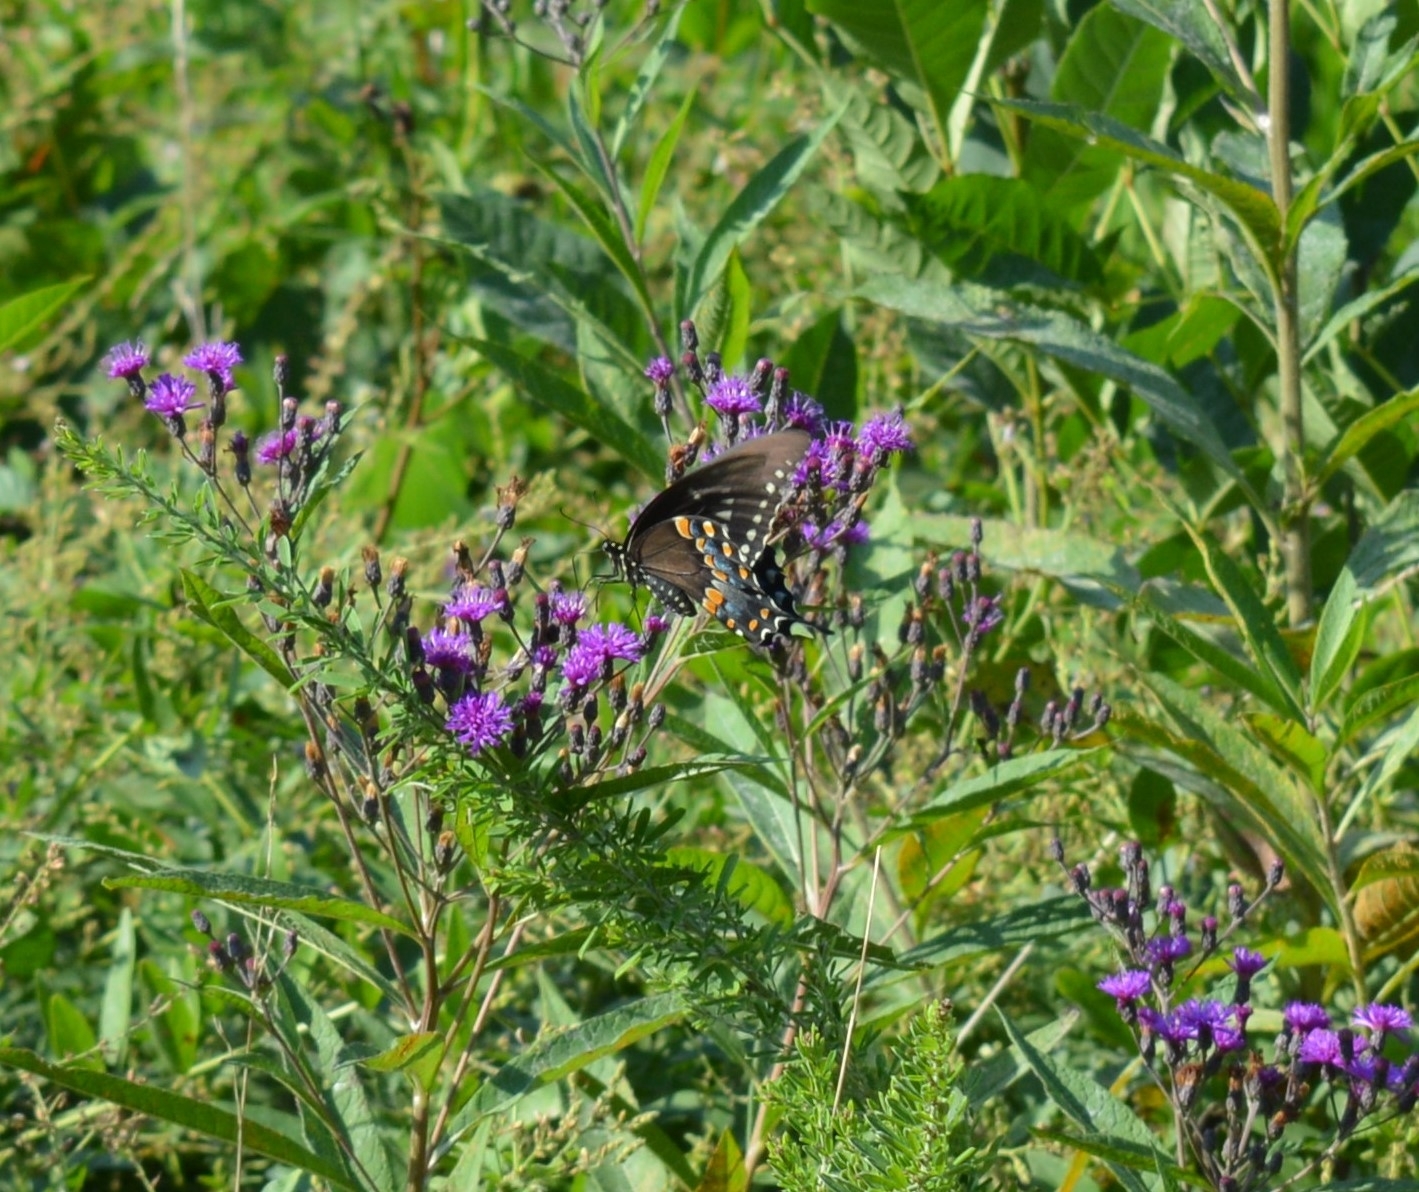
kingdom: Animalia
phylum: Arthropoda
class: Insecta
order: Lepidoptera
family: Papilionidae
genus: Papilio
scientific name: Papilio troilus
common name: Spicebush swallowtail
